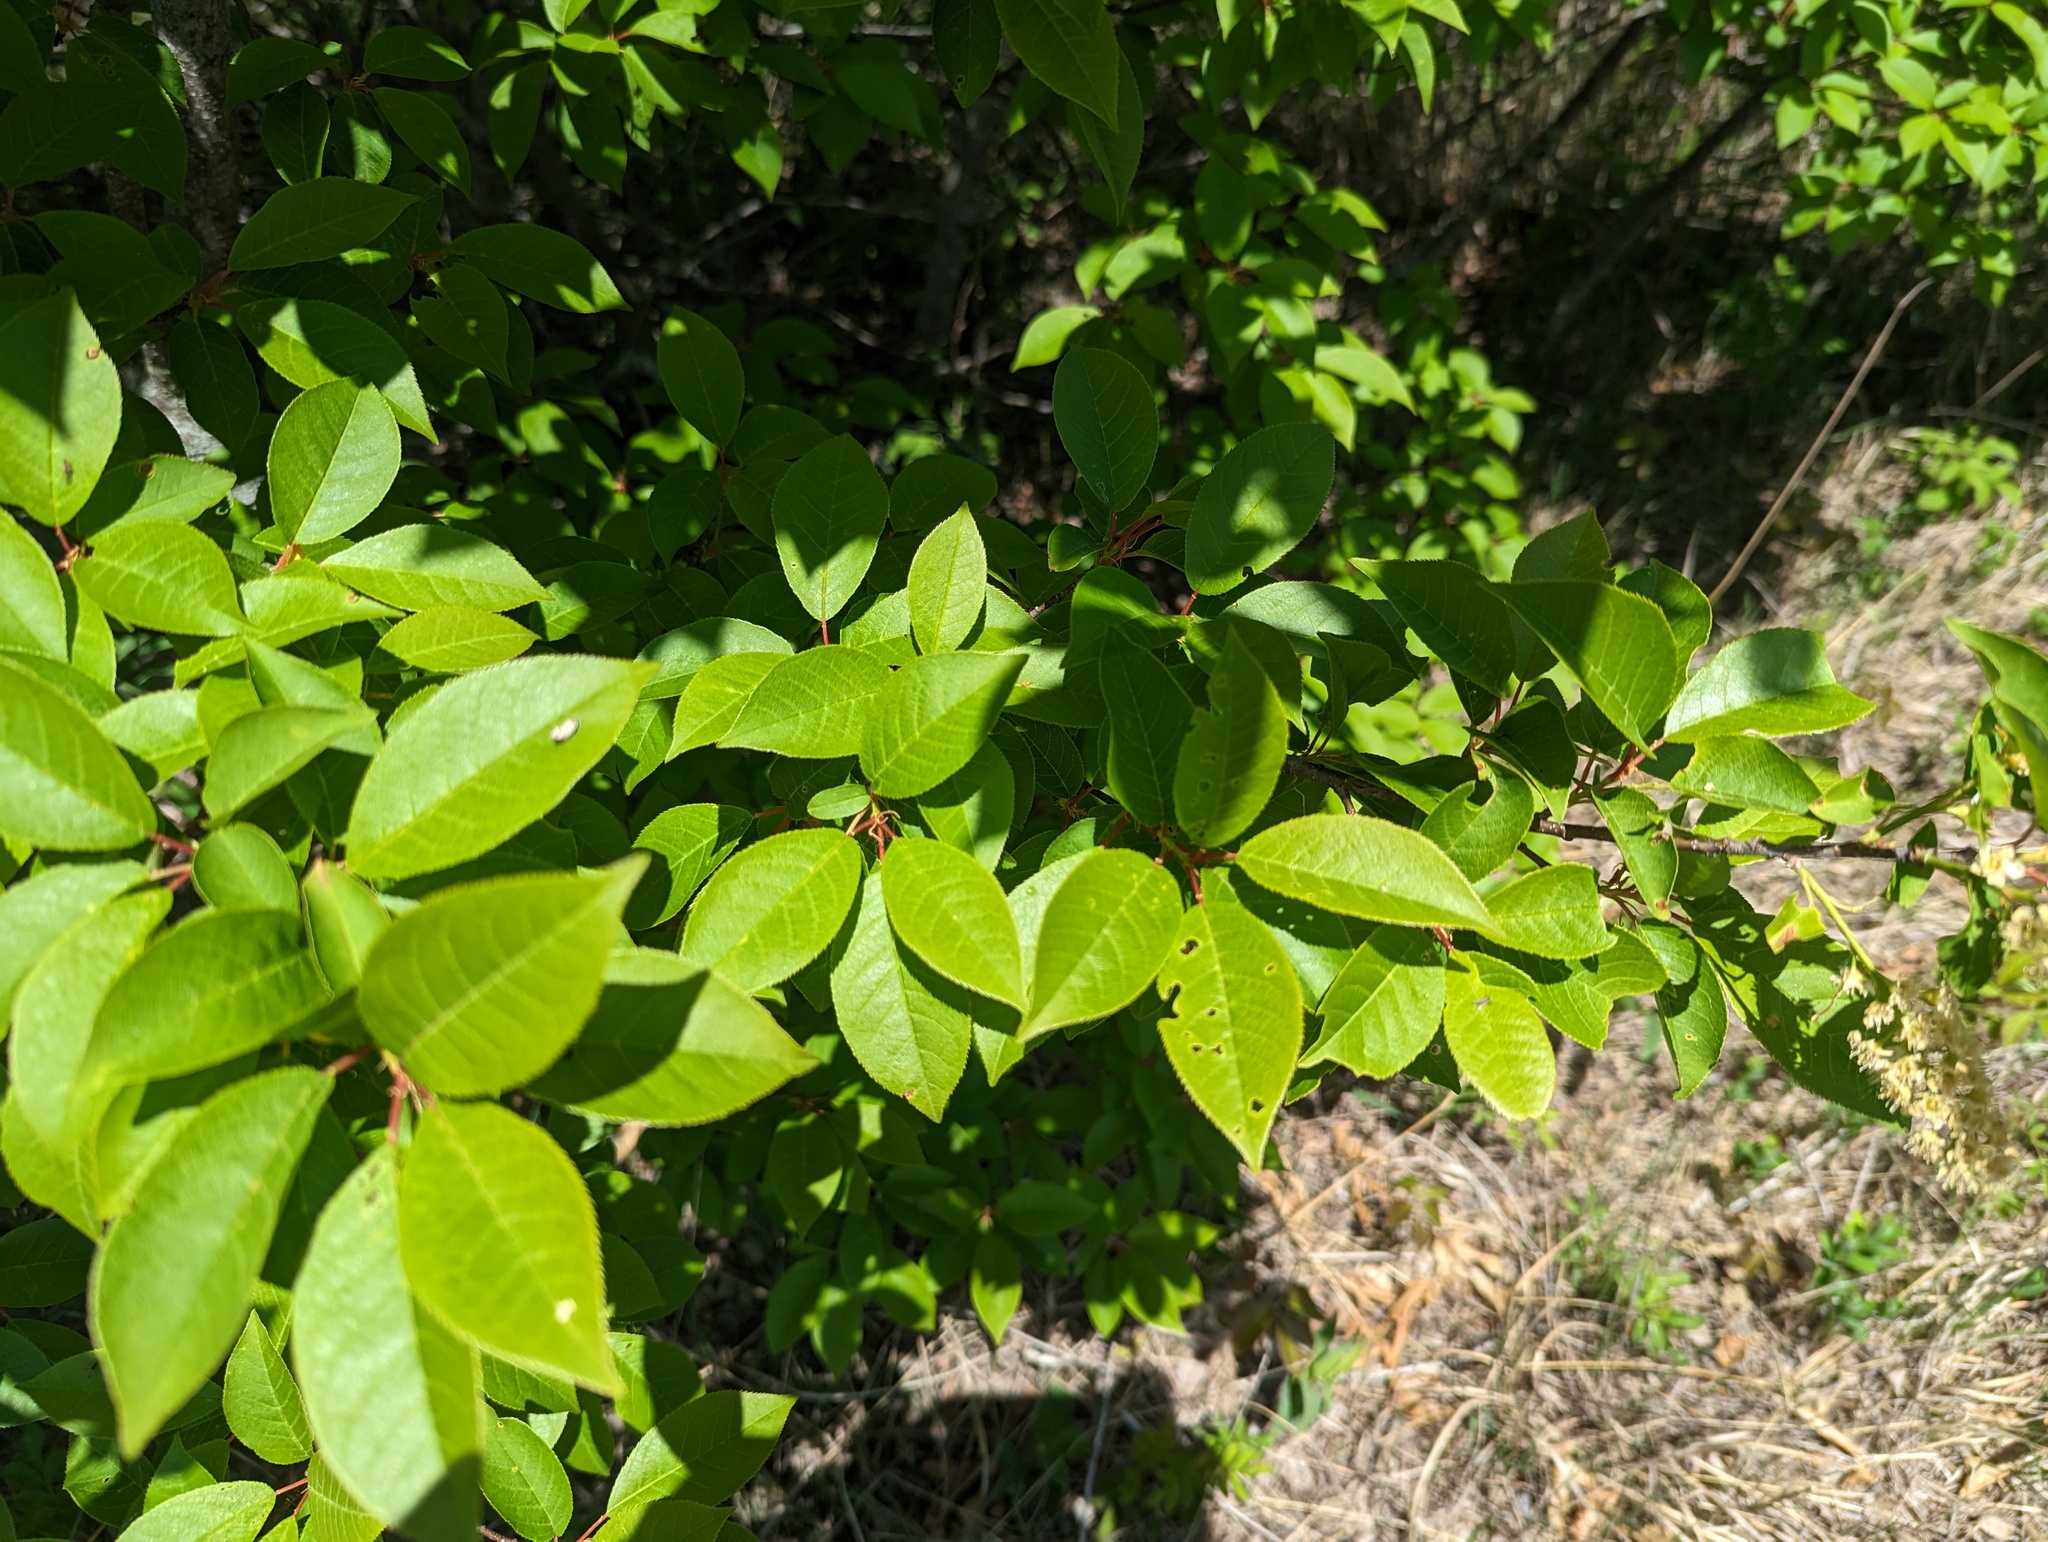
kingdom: Plantae
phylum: Tracheophyta
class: Magnoliopsida
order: Rosales
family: Rosaceae
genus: Prunus
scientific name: Prunus virginiana
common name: Chokecherry
